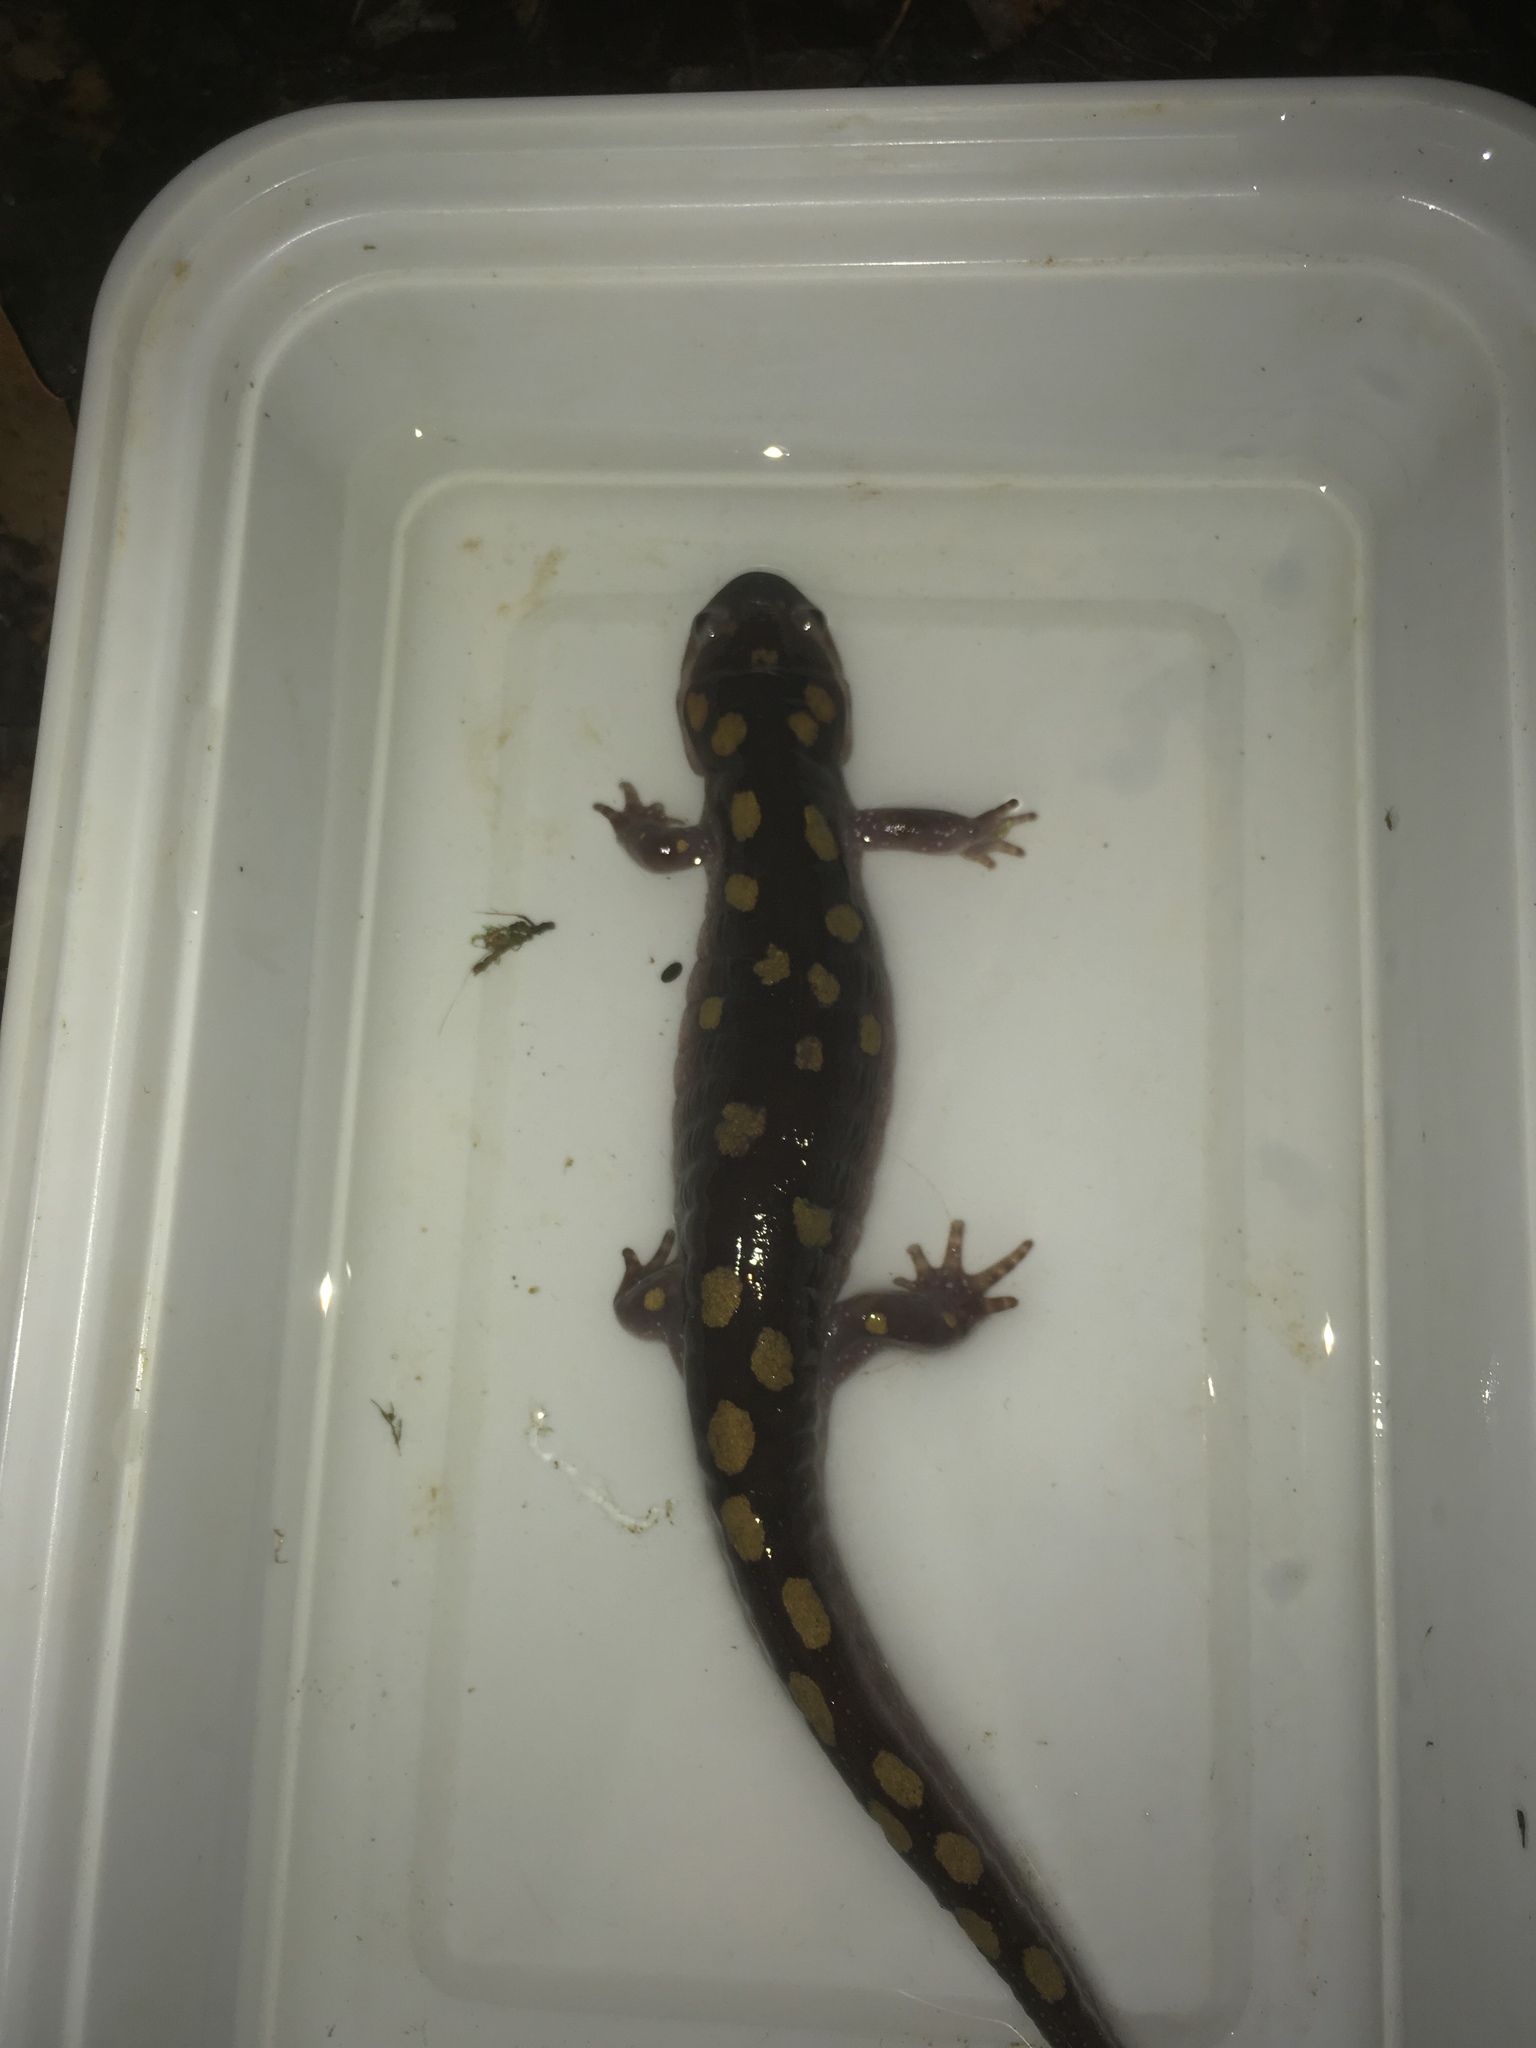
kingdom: Animalia
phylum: Chordata
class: Amphibia
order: Caudata
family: Ambystomatidae
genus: Ambystoma
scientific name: Ambystoma maculatum
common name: Spotted salamander
